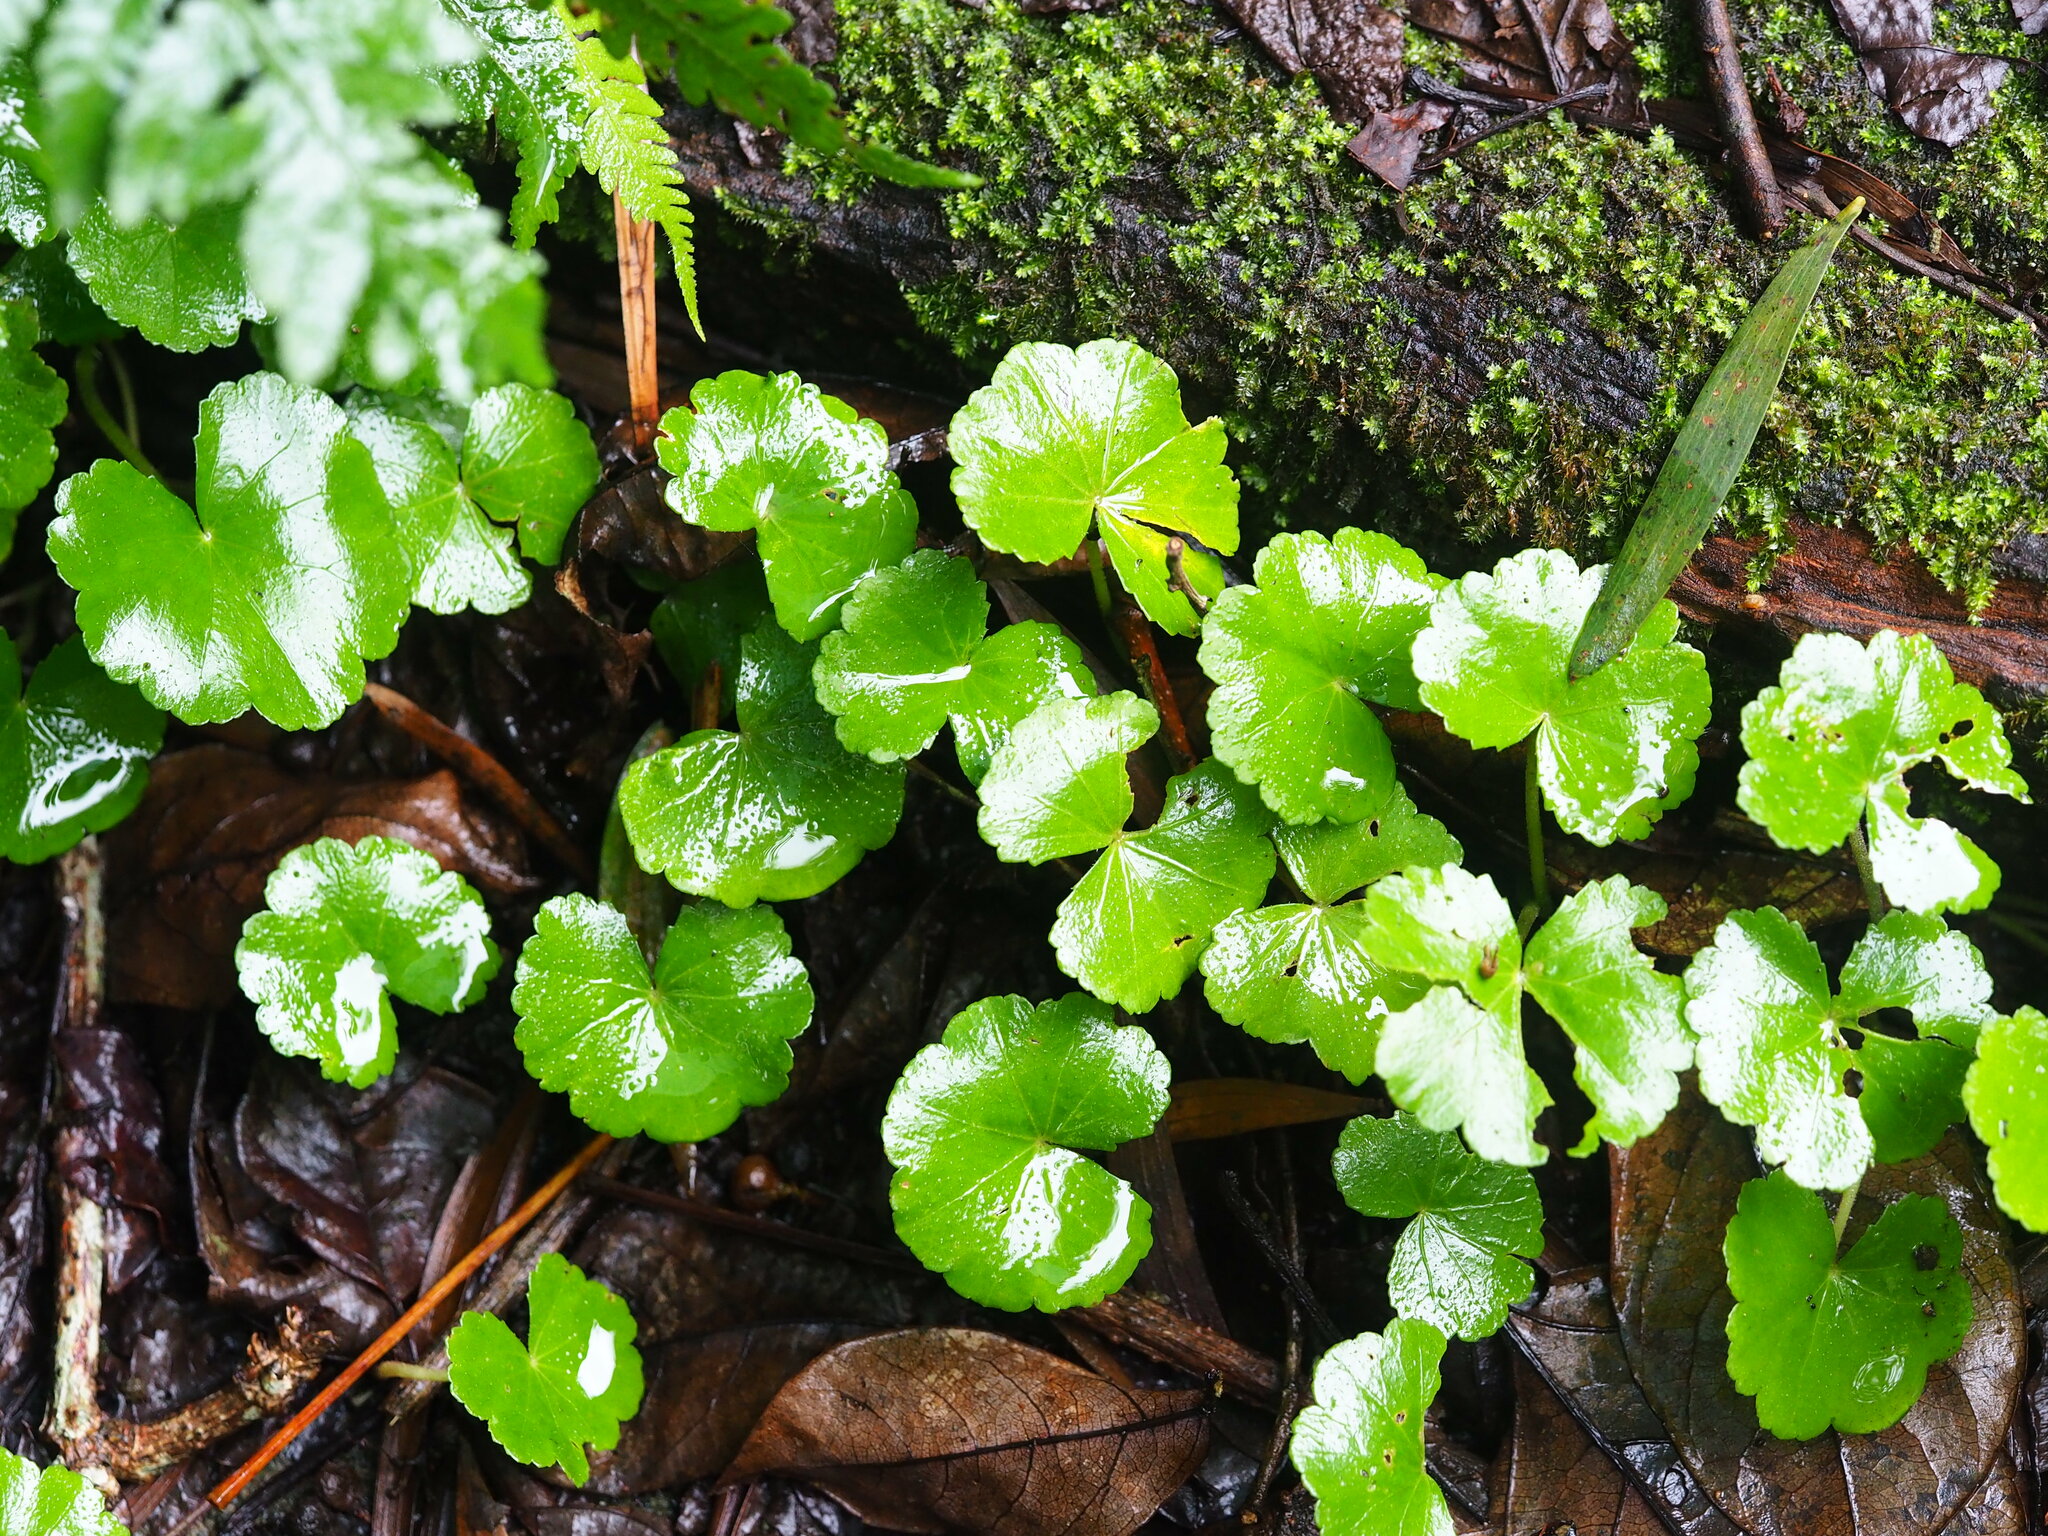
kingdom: Plantae
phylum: Tracheophyta
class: Magnoliopsida
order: Apiales
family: Araliaceae
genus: Hydrocotyle
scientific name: Hydrocotyle nepalensis
